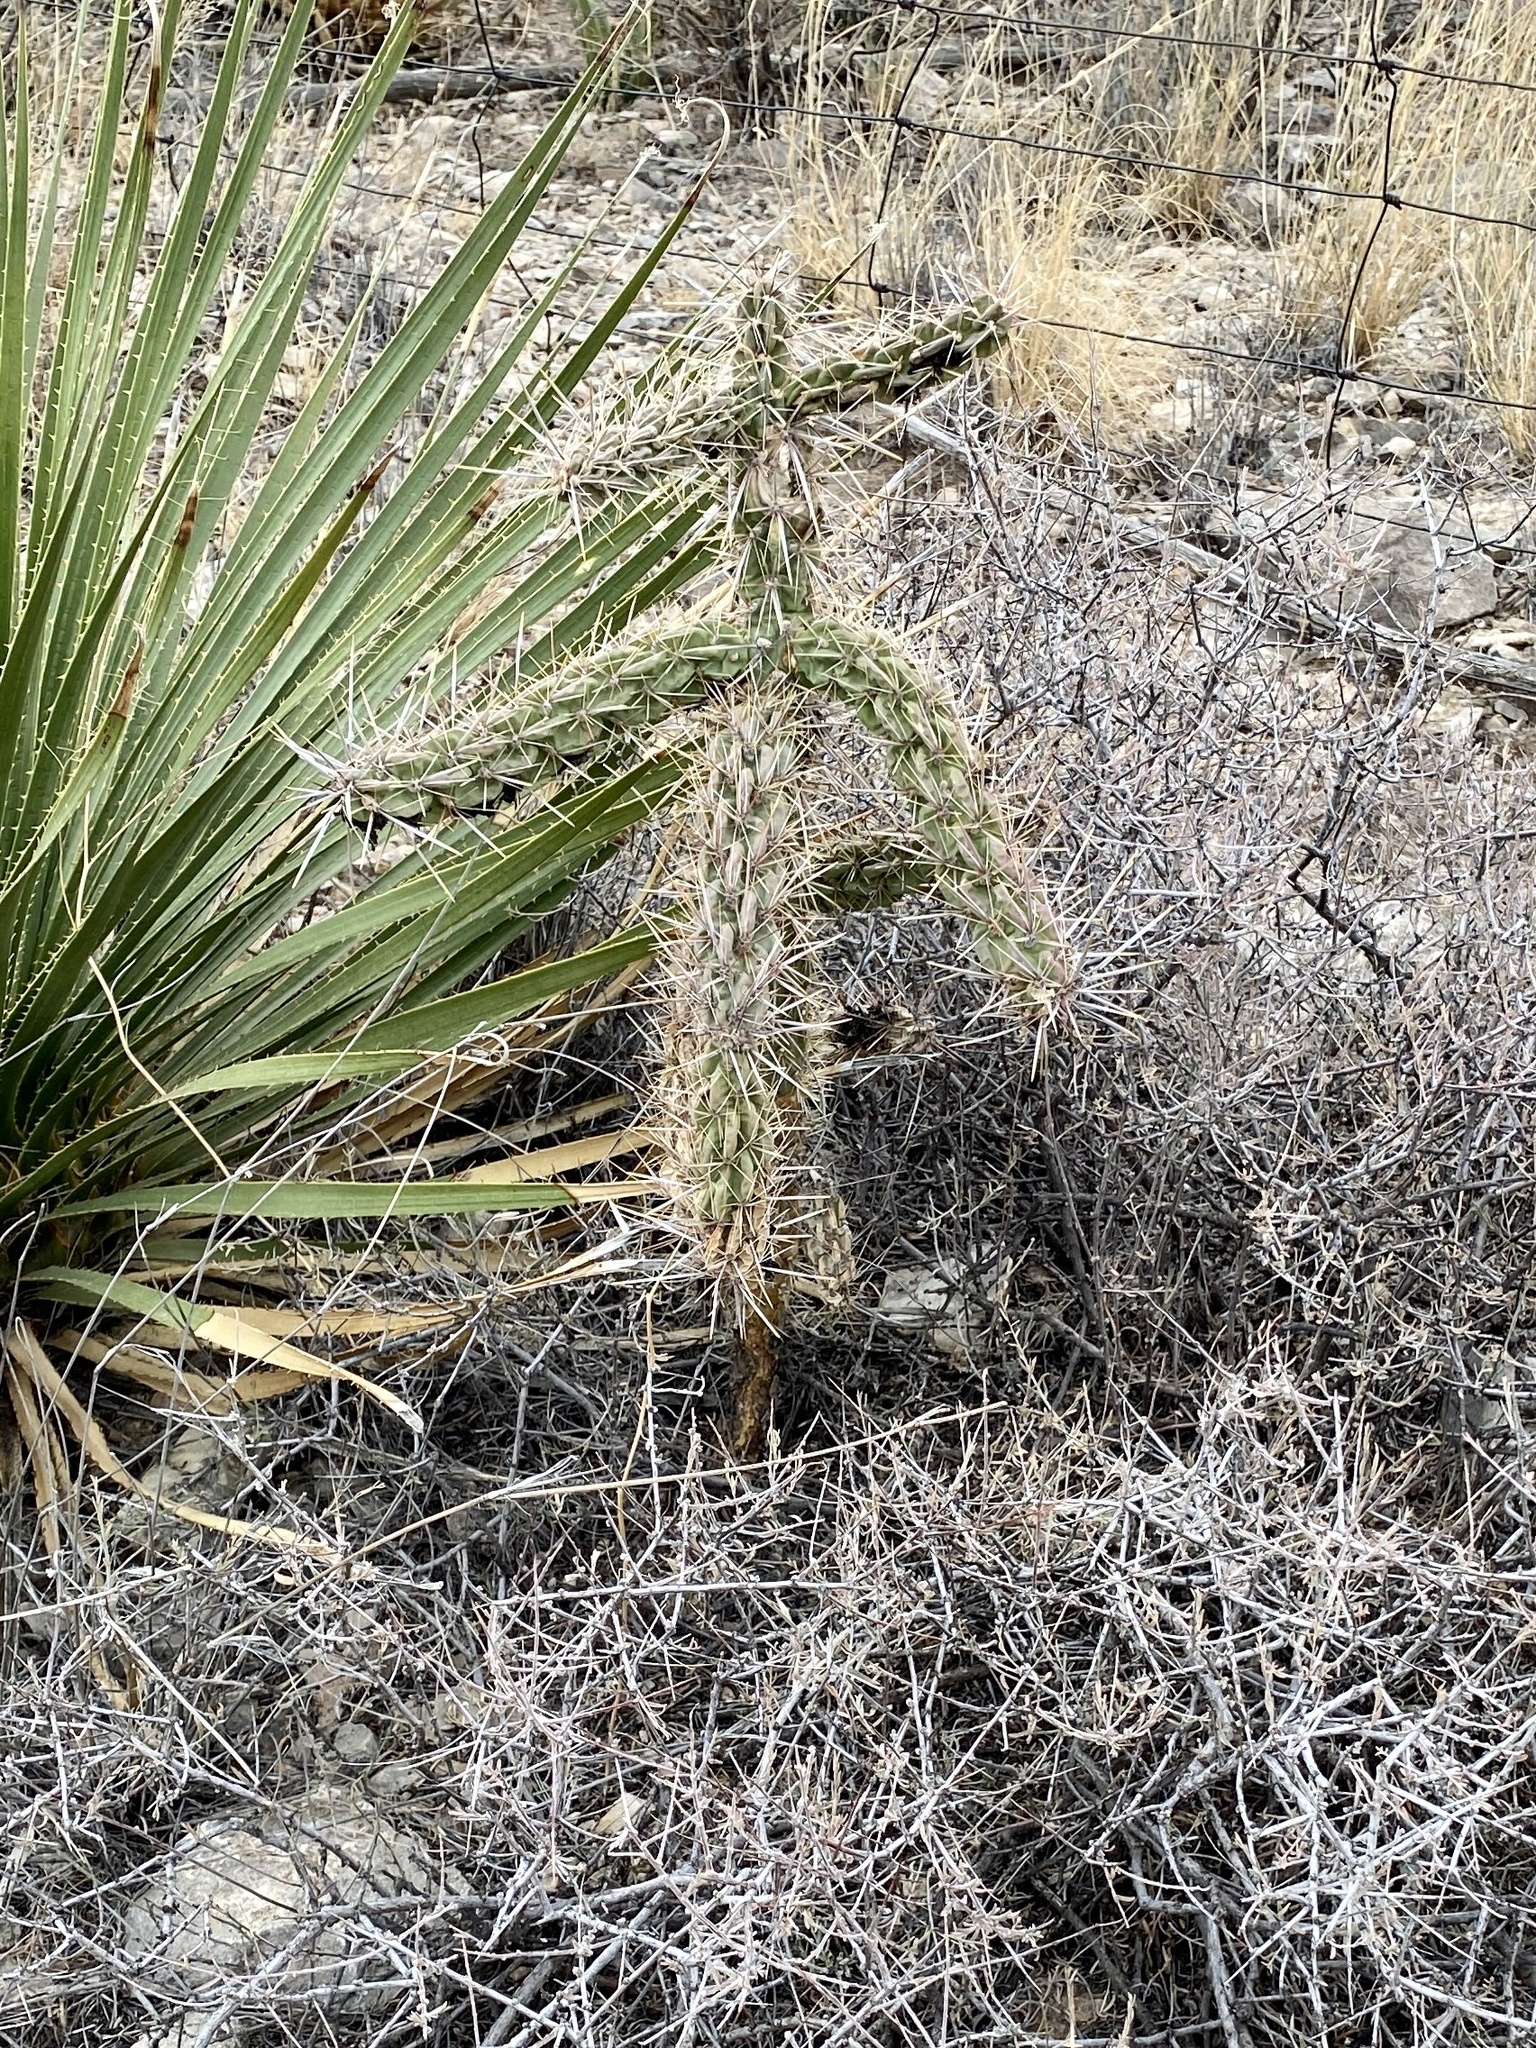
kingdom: Plantae
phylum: Tracheophyta
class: Magnoliopsida
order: Caryophyllales
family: Cactaceae
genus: Cylindropuntia
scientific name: Cylindropuntia imbricata
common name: Candelabrum cactus
